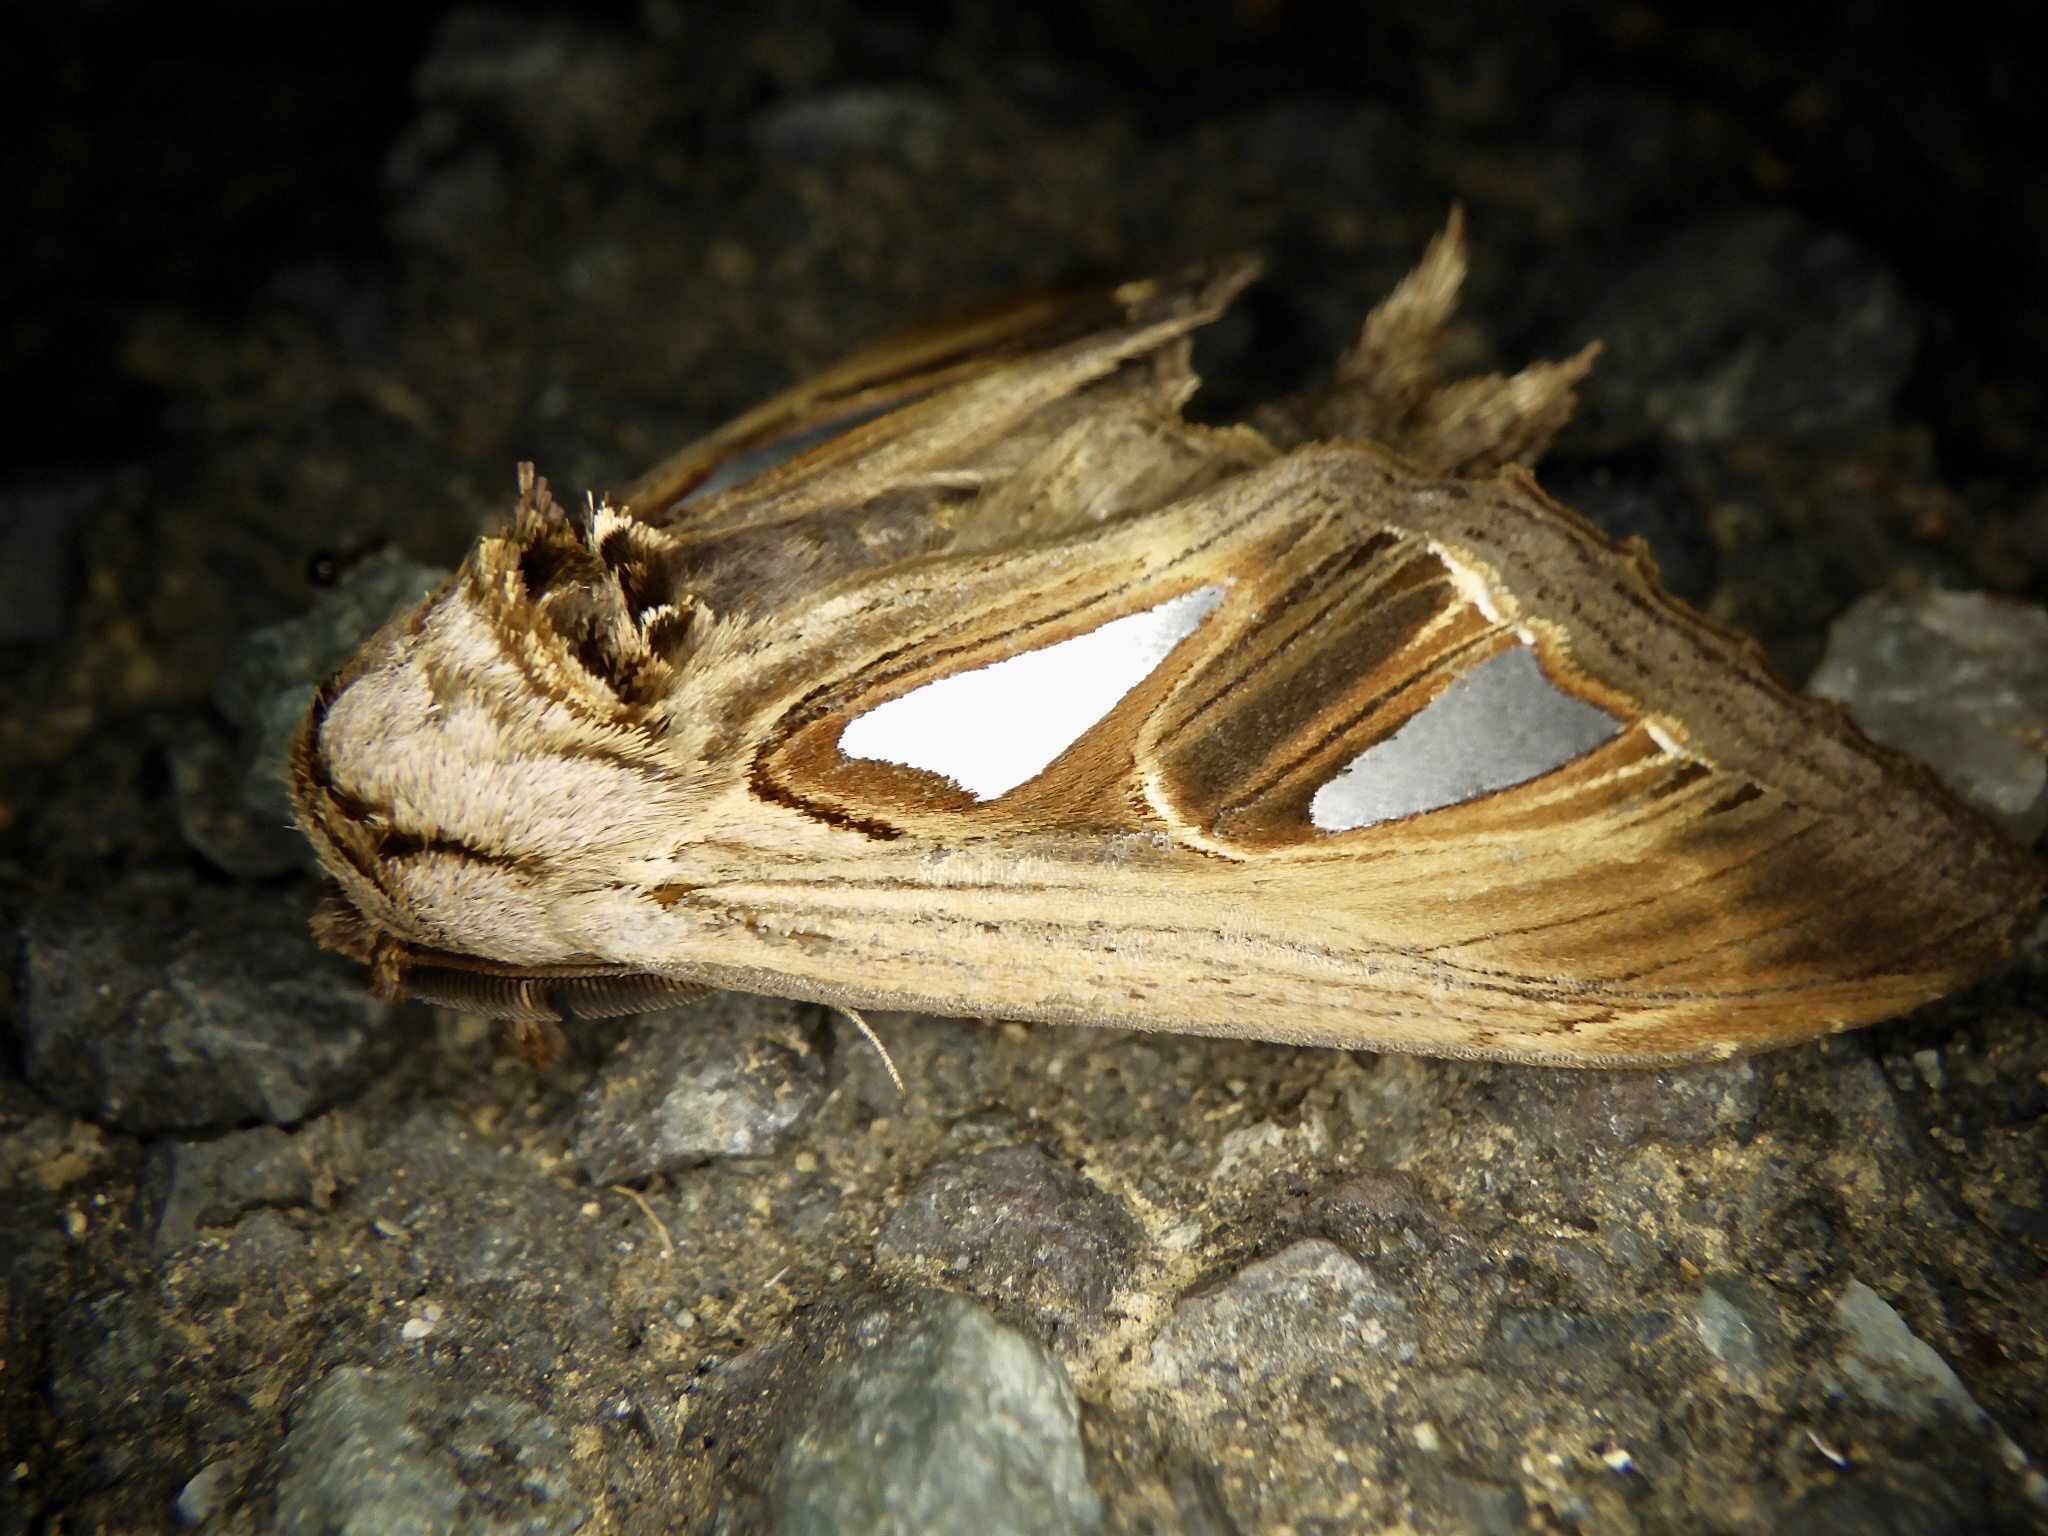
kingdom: Animalia
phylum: Arthropoda
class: Insecta
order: Lepidoptera
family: Notodontidae
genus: Tarsolepis
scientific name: Tarsolepis japonica
